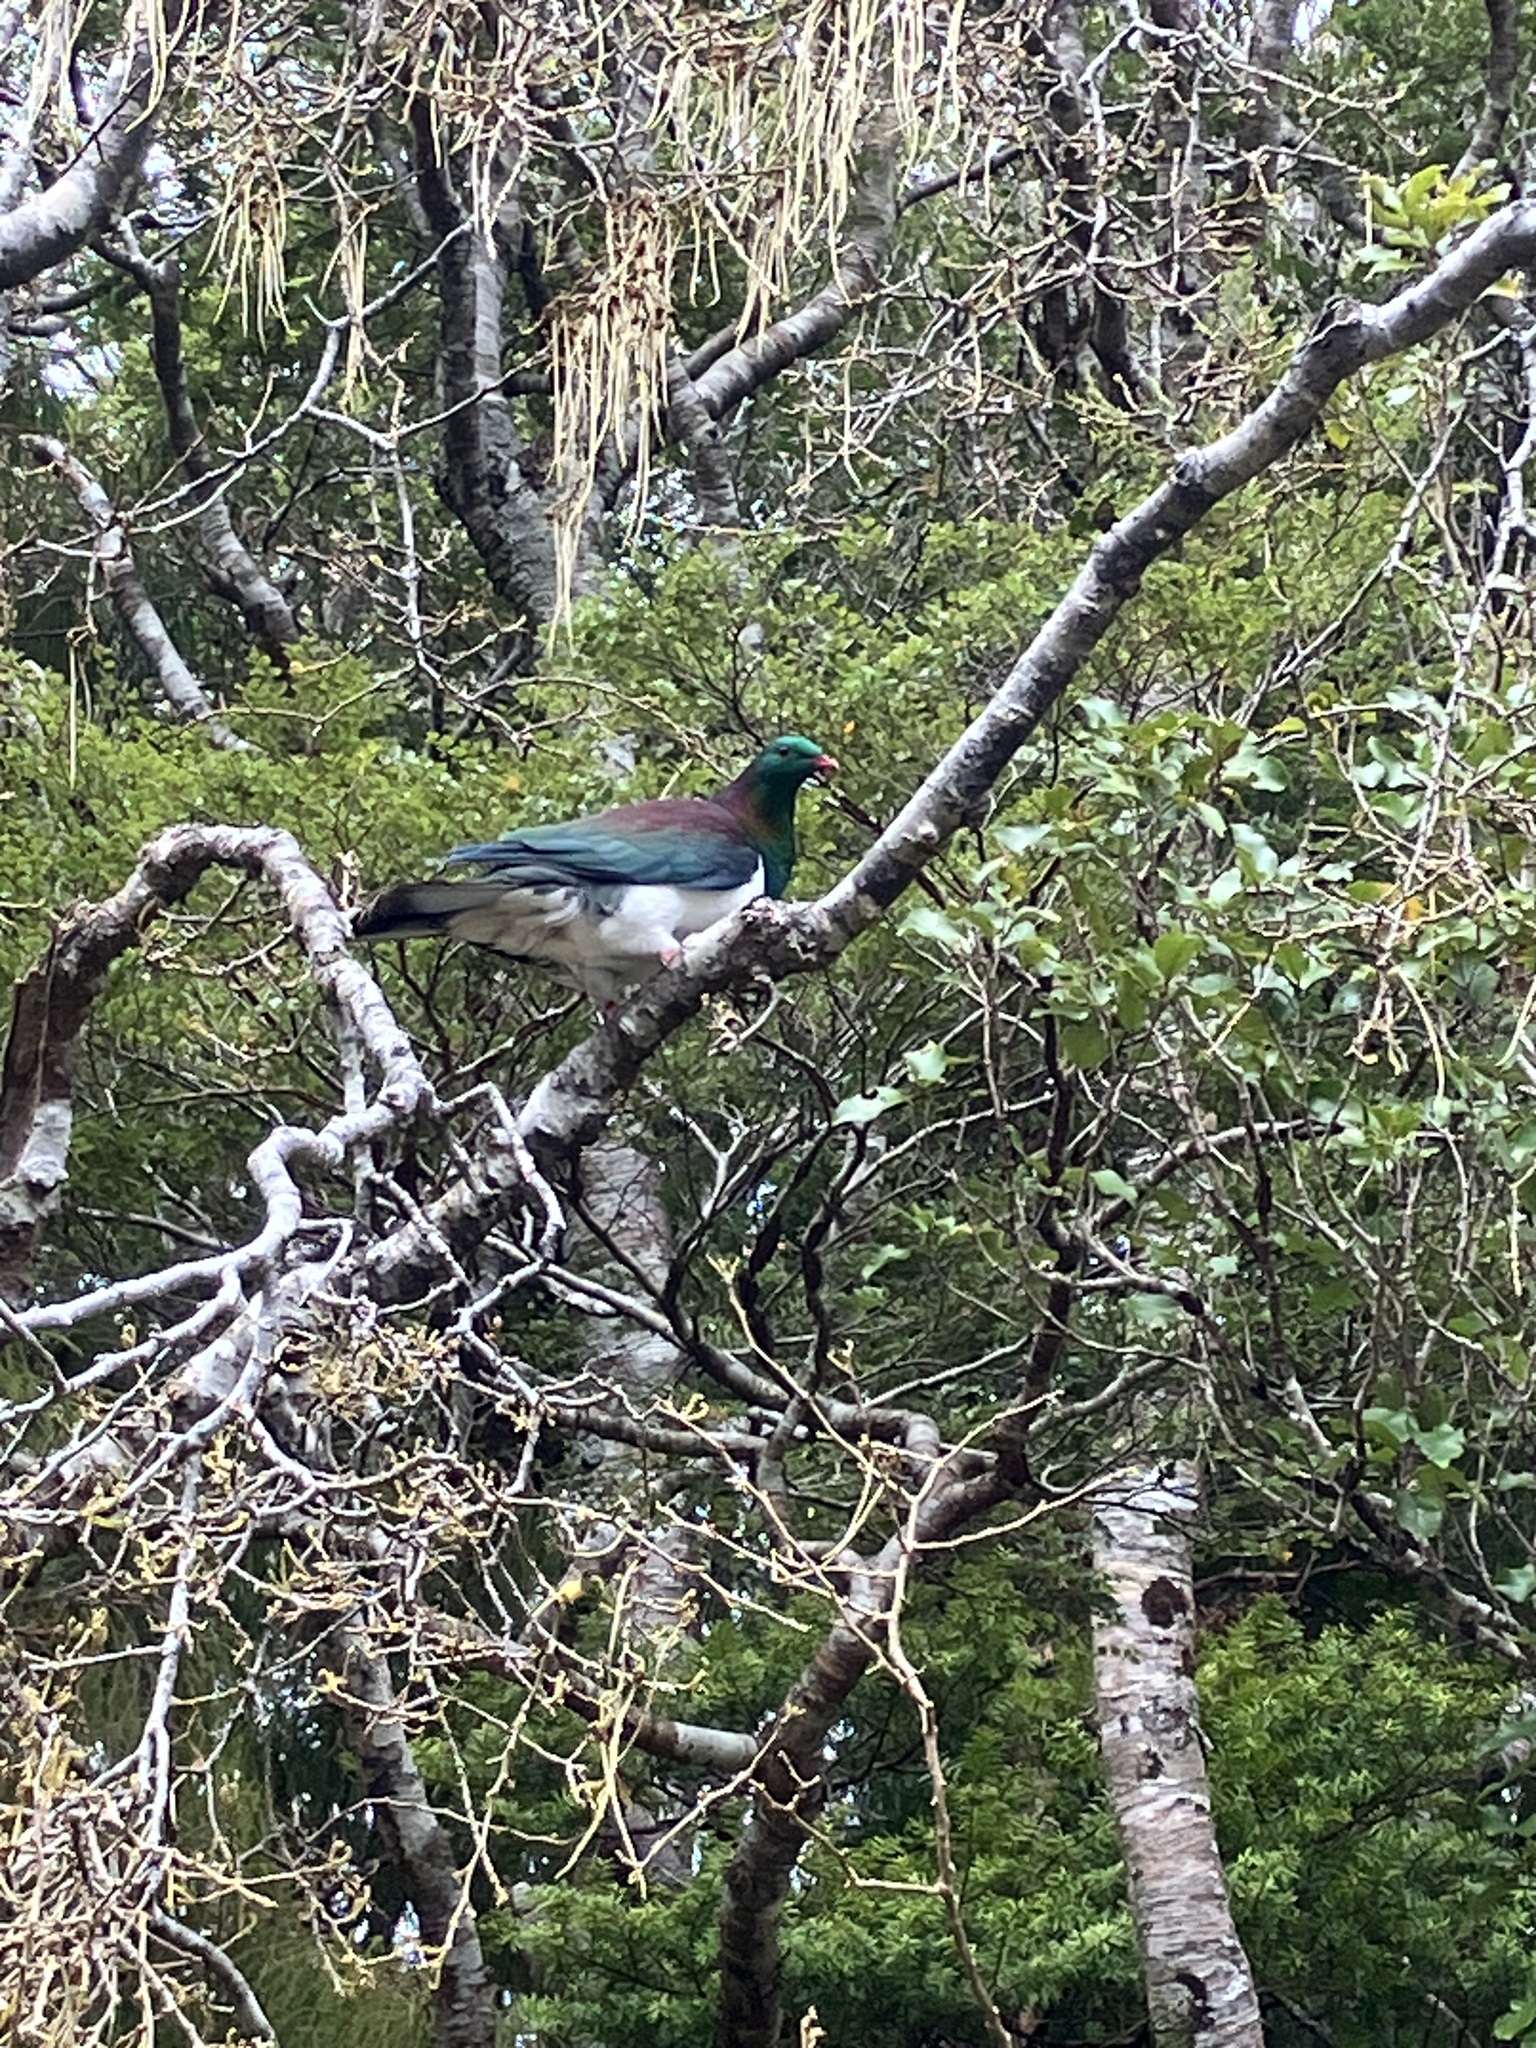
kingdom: Animalia
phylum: Chordata
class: Aves
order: Columbiformes
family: Columbidae
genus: Hemiphaga
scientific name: Hemiphaga novaeseelandiae
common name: New zealand pigeon
